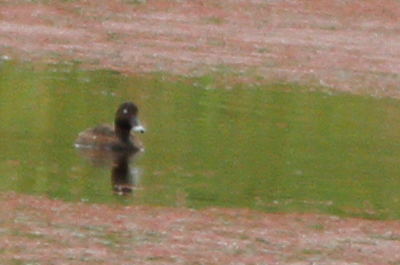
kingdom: Animalia
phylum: Chordata
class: Aves
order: Anseriformes
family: Anatidae
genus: Aythya
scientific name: Aythya australis
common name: Hardhead
